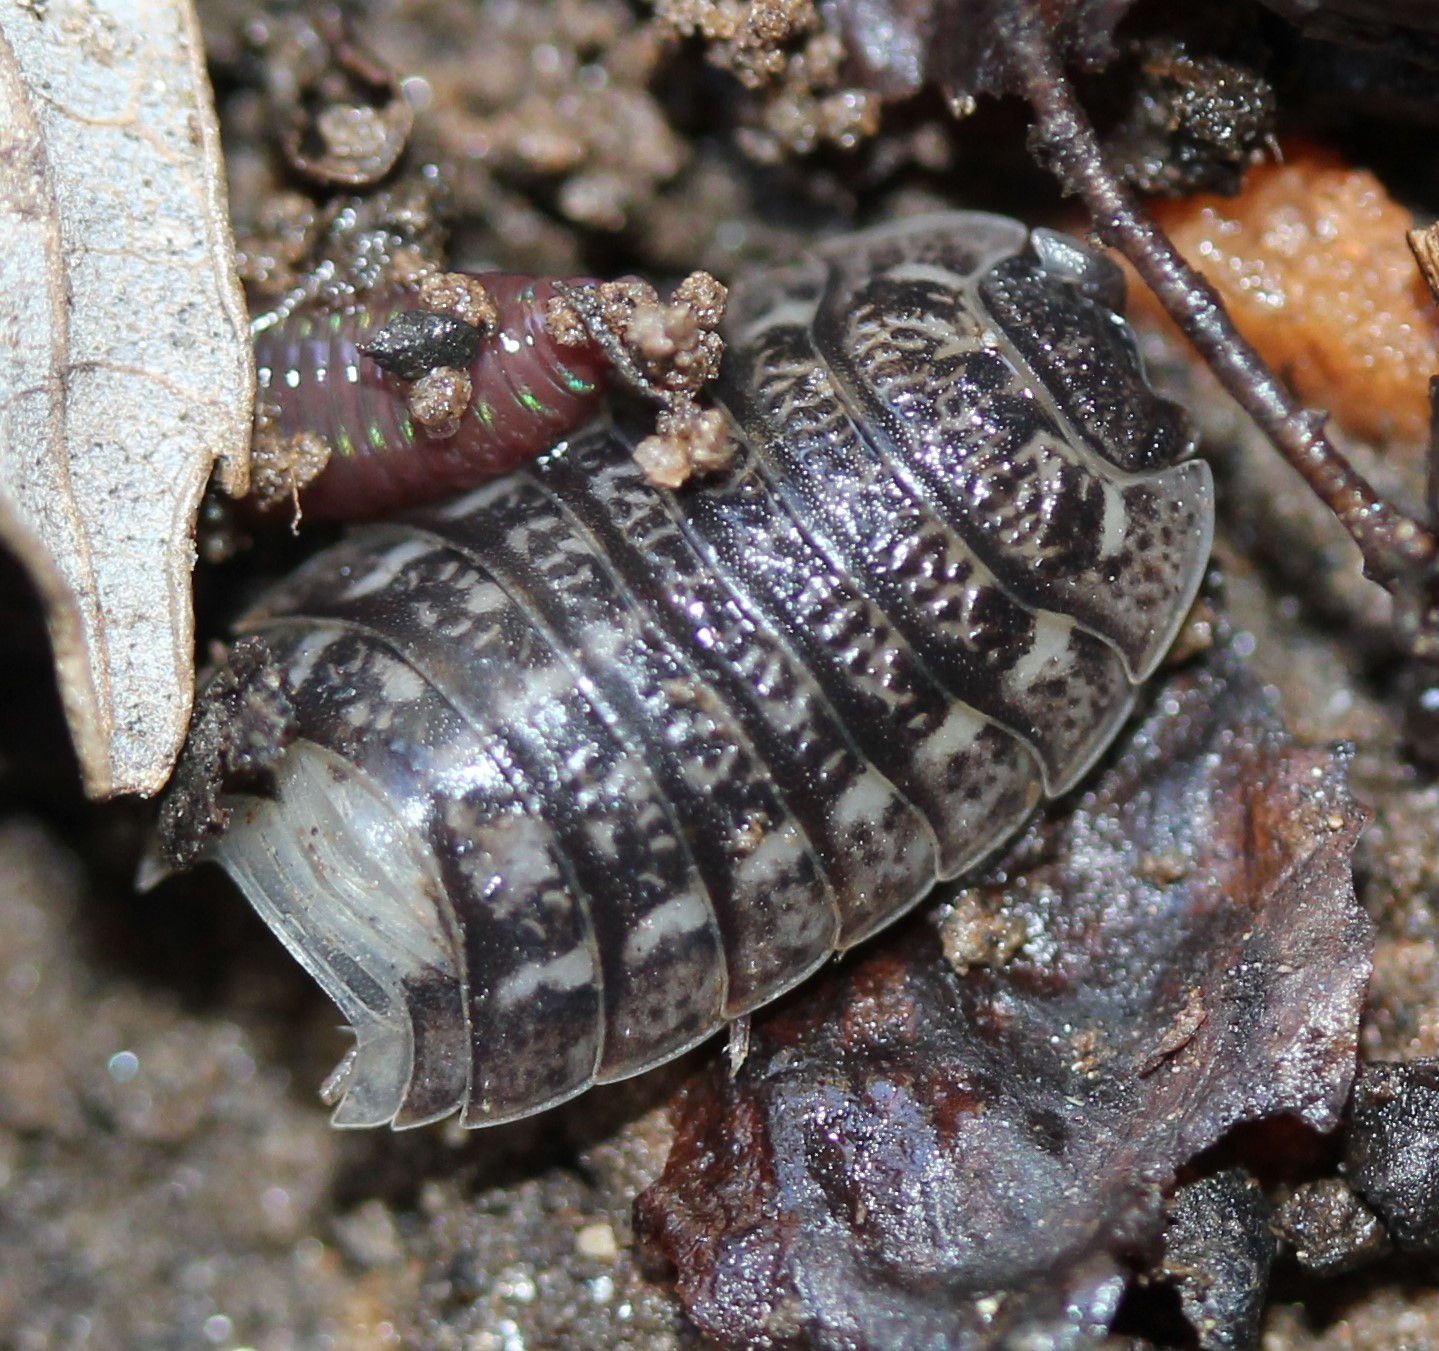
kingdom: Animalia
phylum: Arthropoda
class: Malacostraca
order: Isopoda
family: Trachelipodidae
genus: Trachelipus
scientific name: Trachelipus rathkii
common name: Isopod
